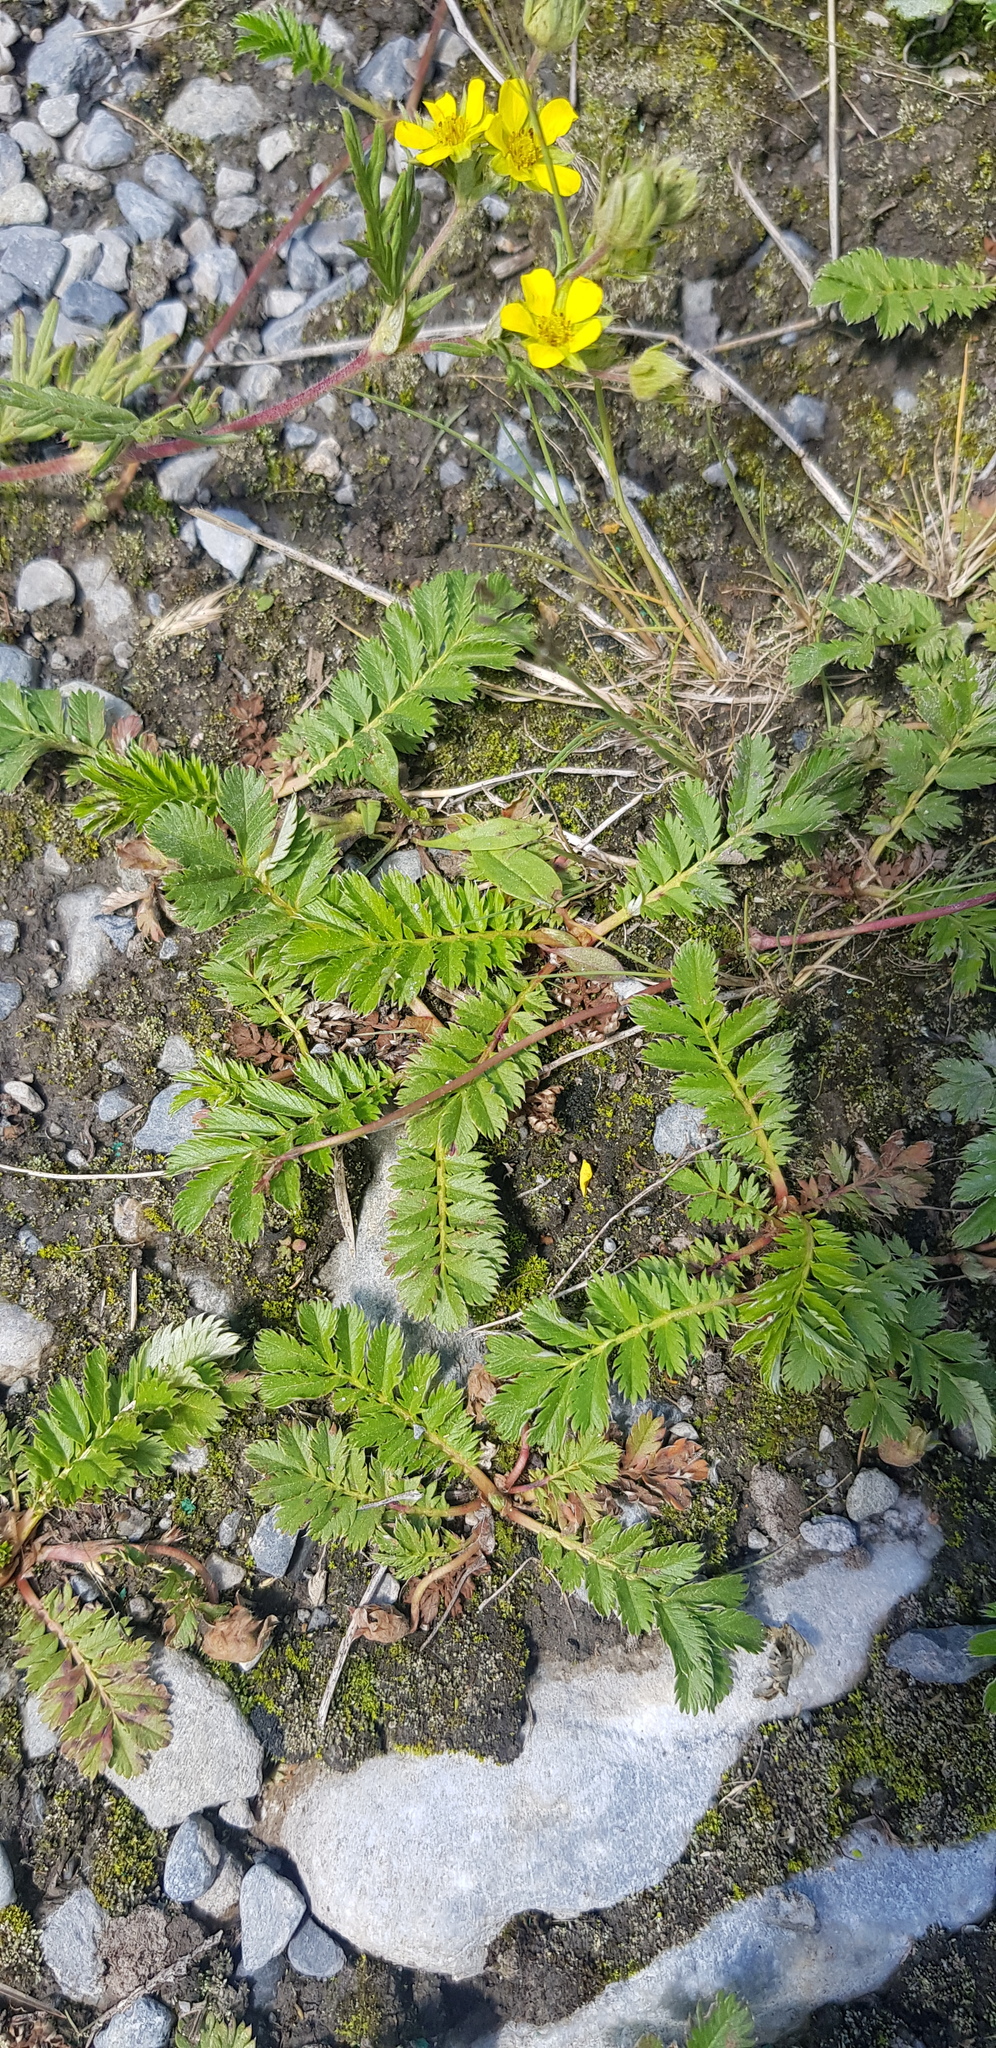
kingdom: Plantae
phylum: Tracheophyta
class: Magnoliopsida
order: Rosales
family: Rosaceae
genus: Argentina
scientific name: Argentina anserina
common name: Common silverweed
